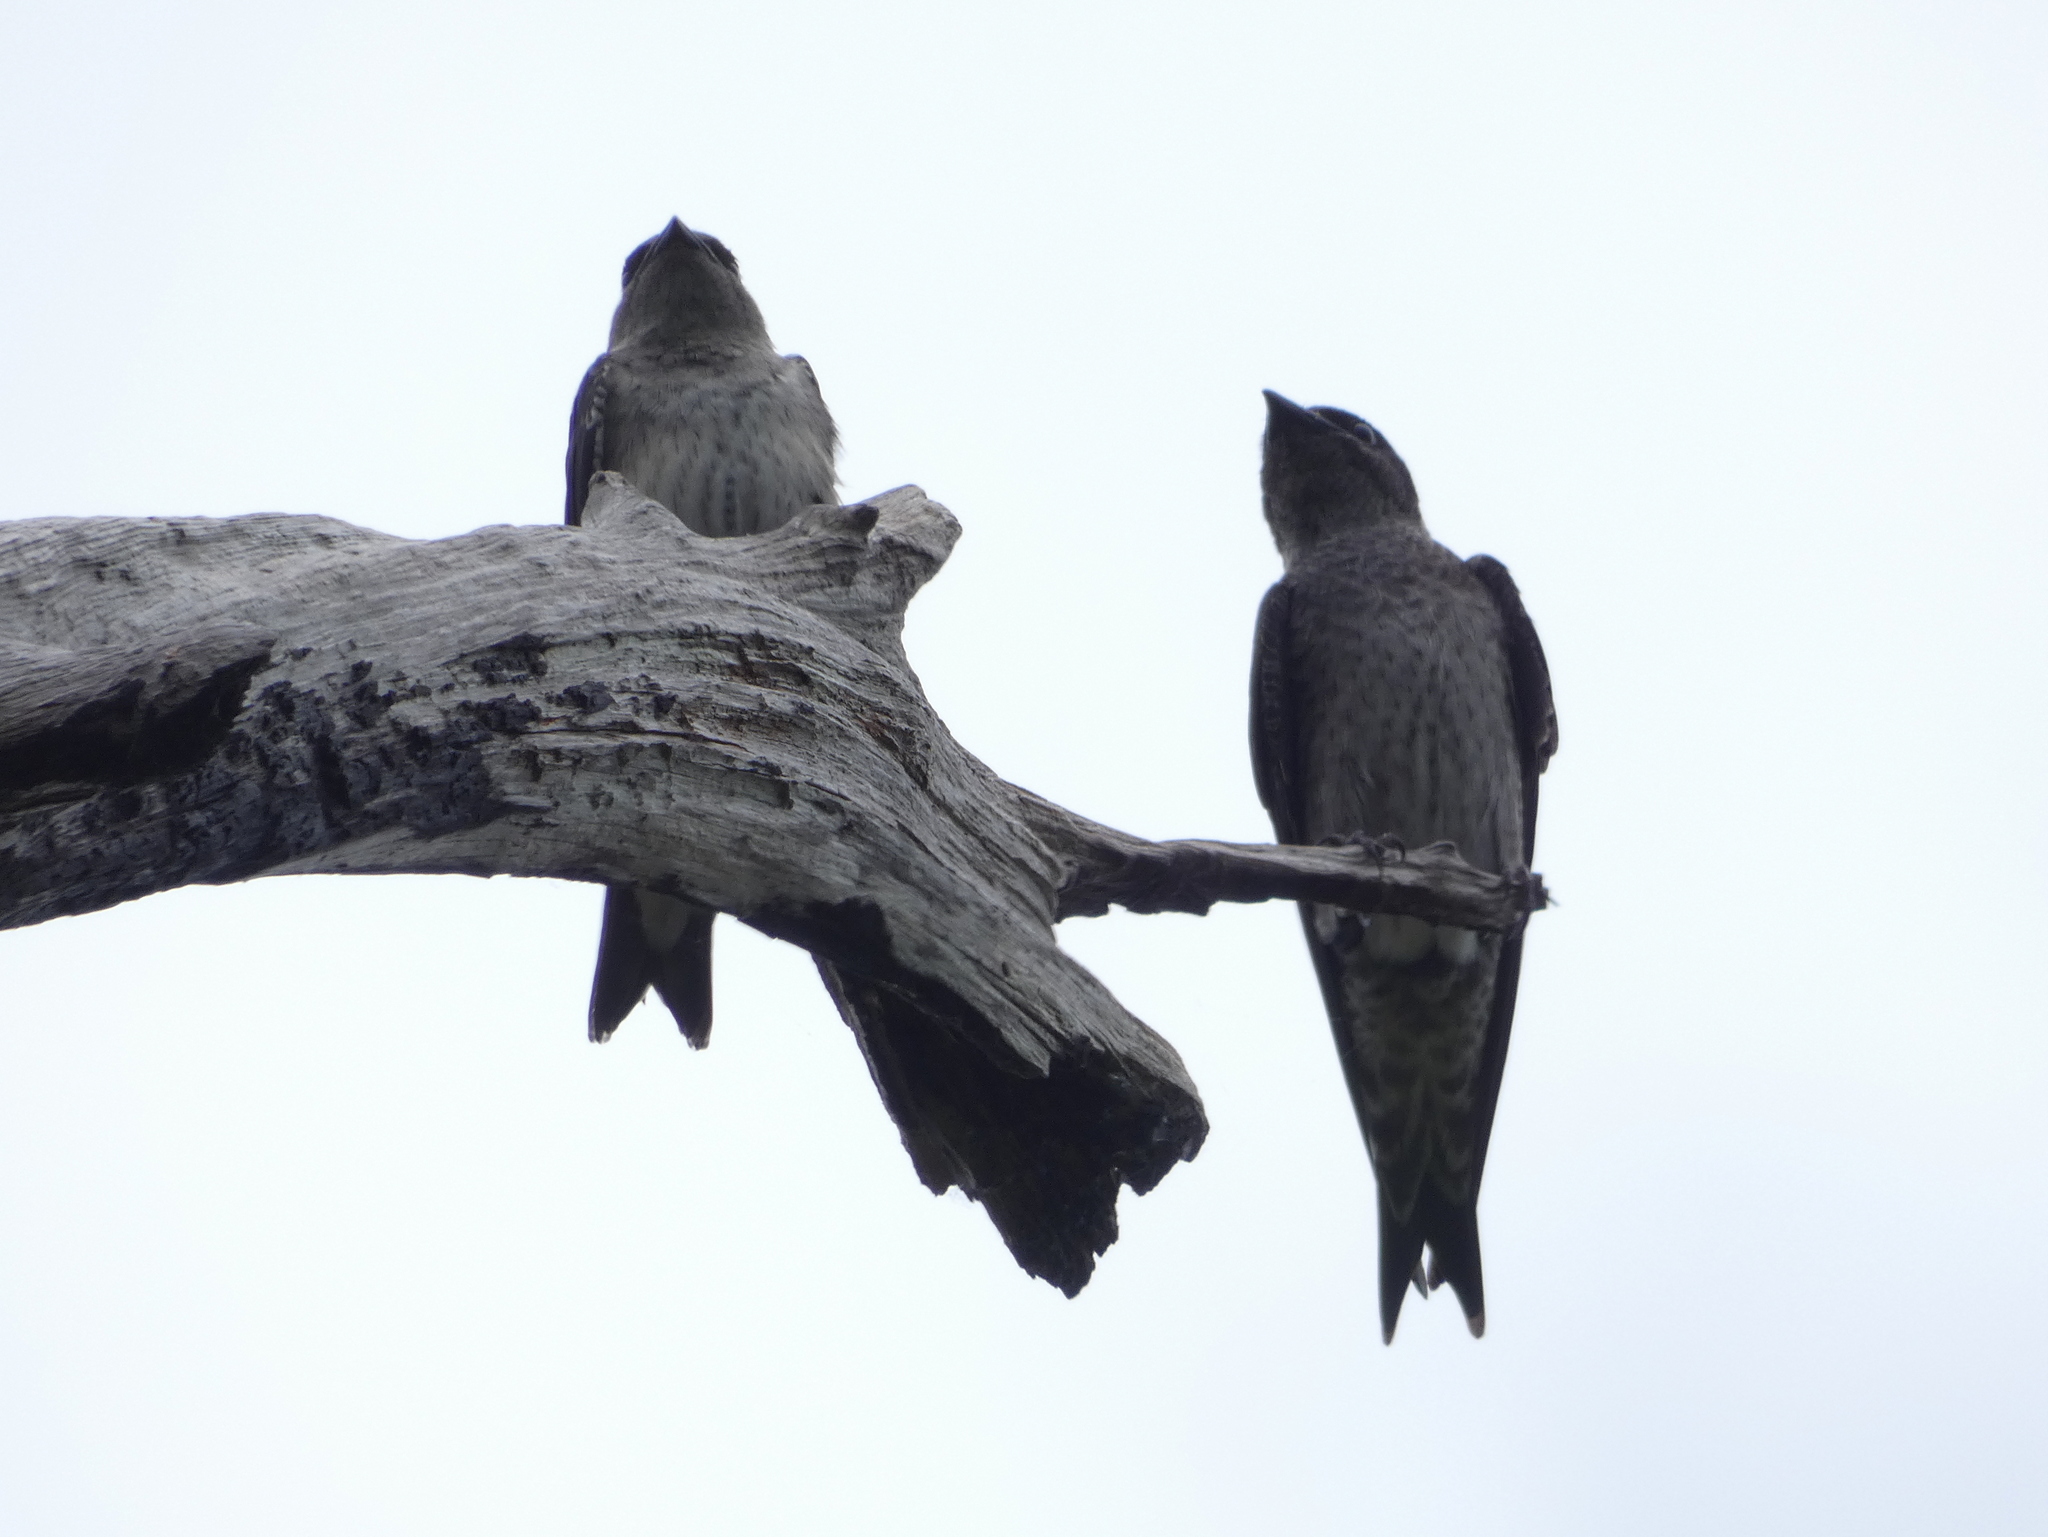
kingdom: Animalia
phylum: Chordata
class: Aves
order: Passeriformes
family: Hirundinidae
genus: Progne
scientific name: Progne subis
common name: Purple martin
